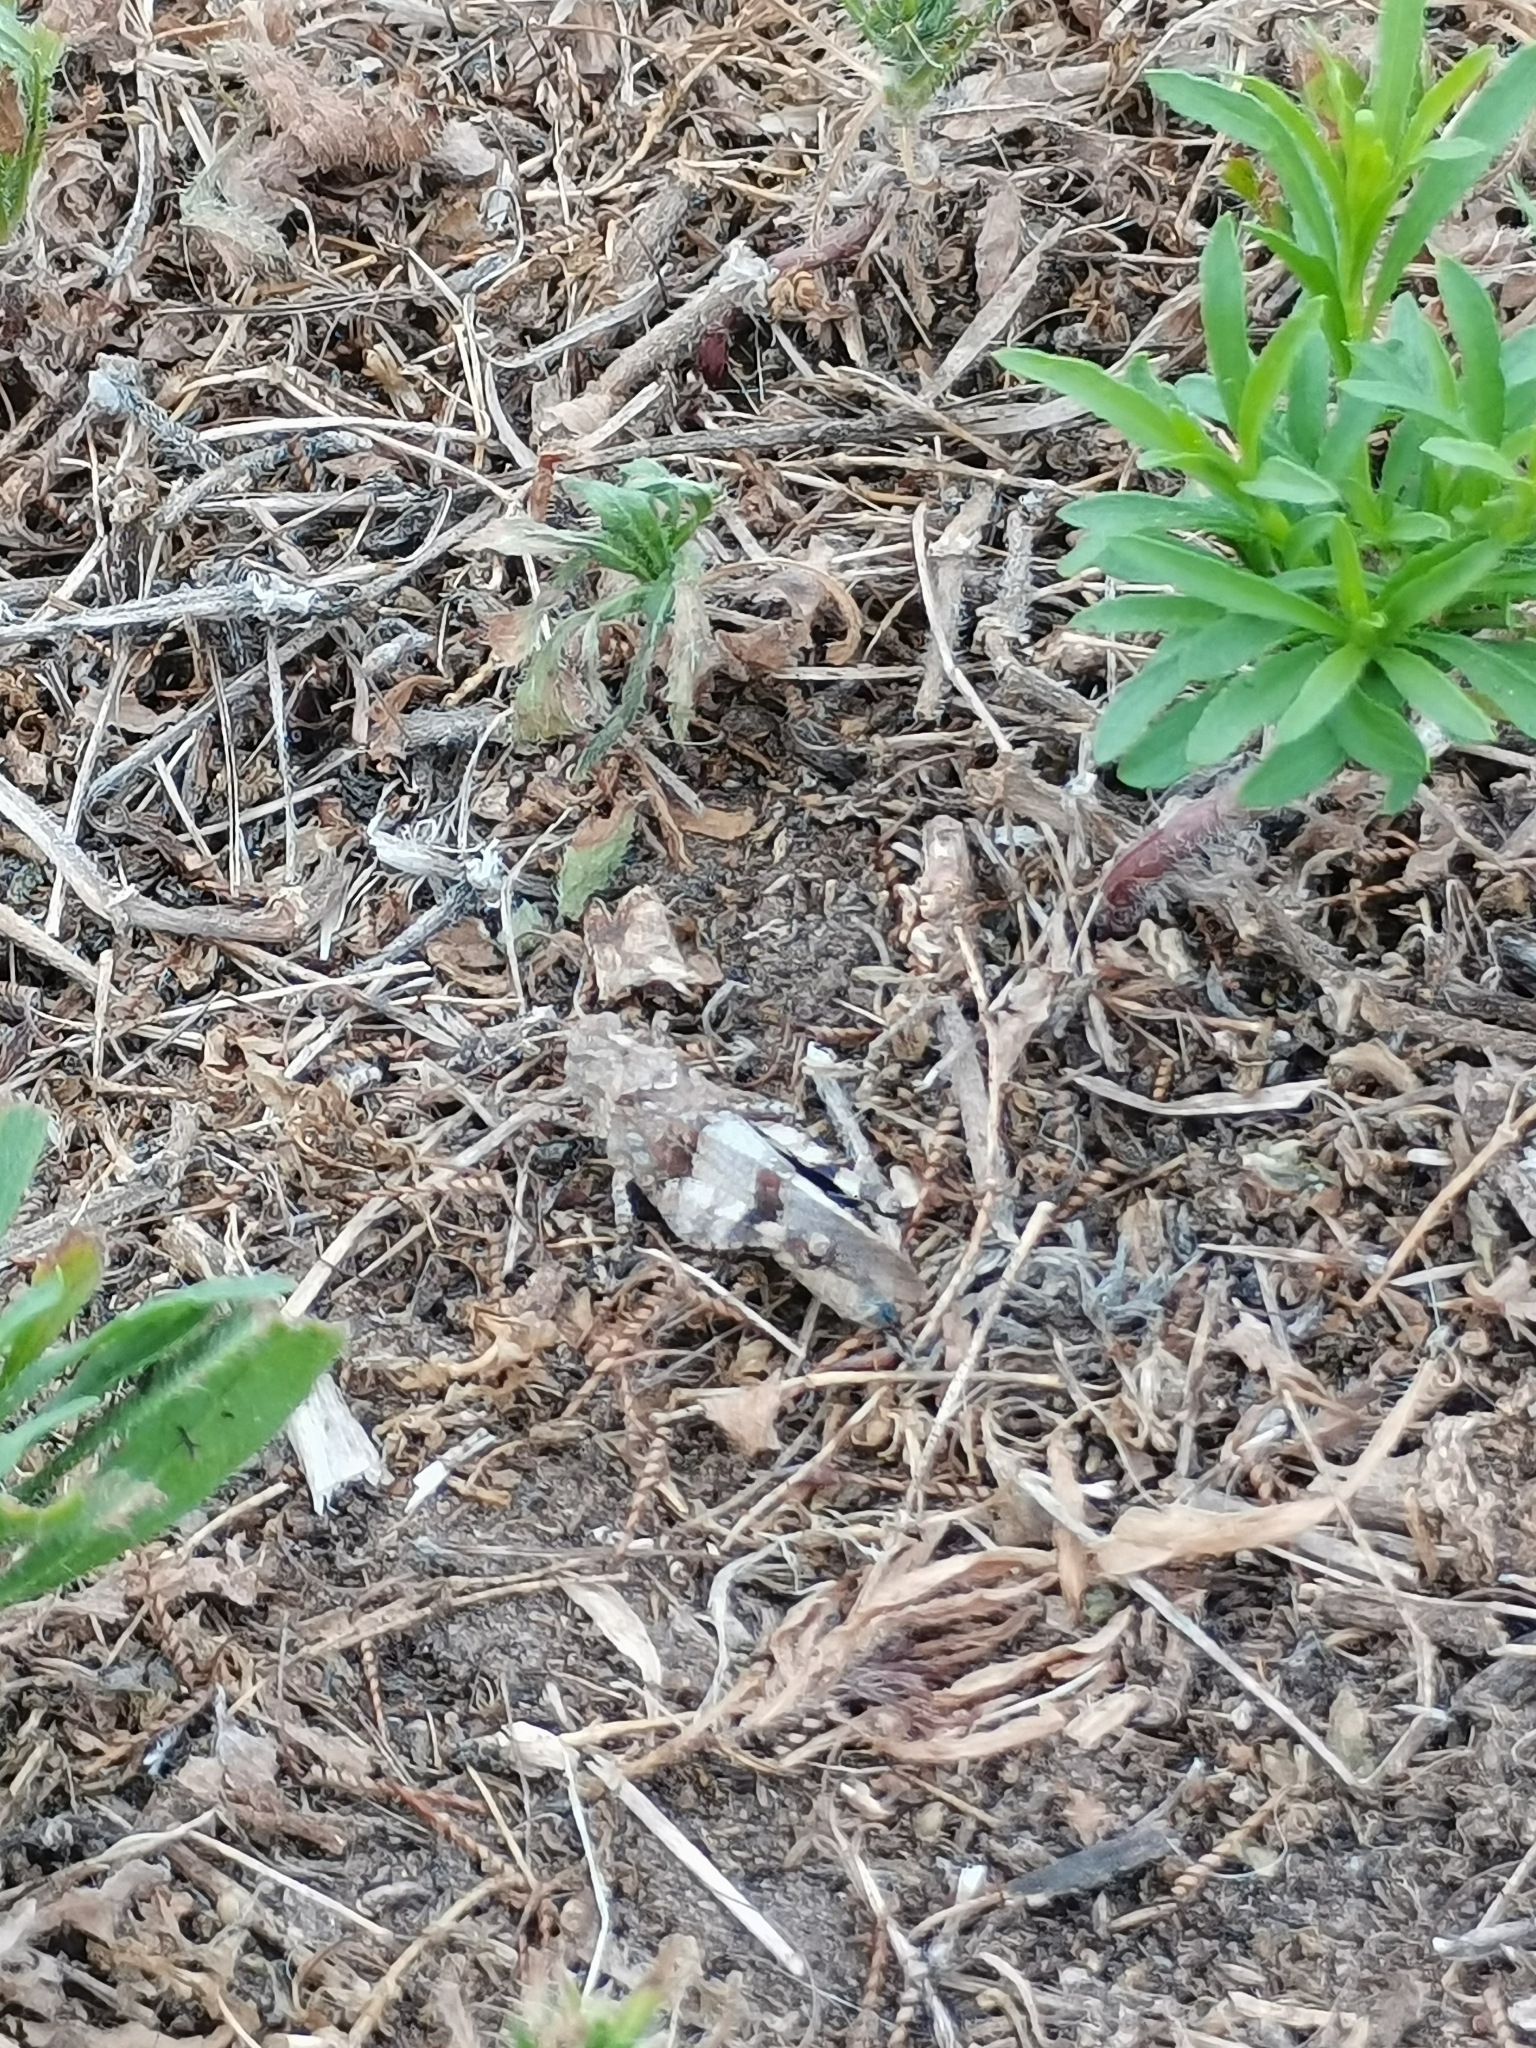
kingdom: Animalia
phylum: Arthropoda
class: Insecta
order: Orthoptera
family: Acrididae
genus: Oedipoda
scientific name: Oedipoda caerulescens
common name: Blue-winged grasshopper
